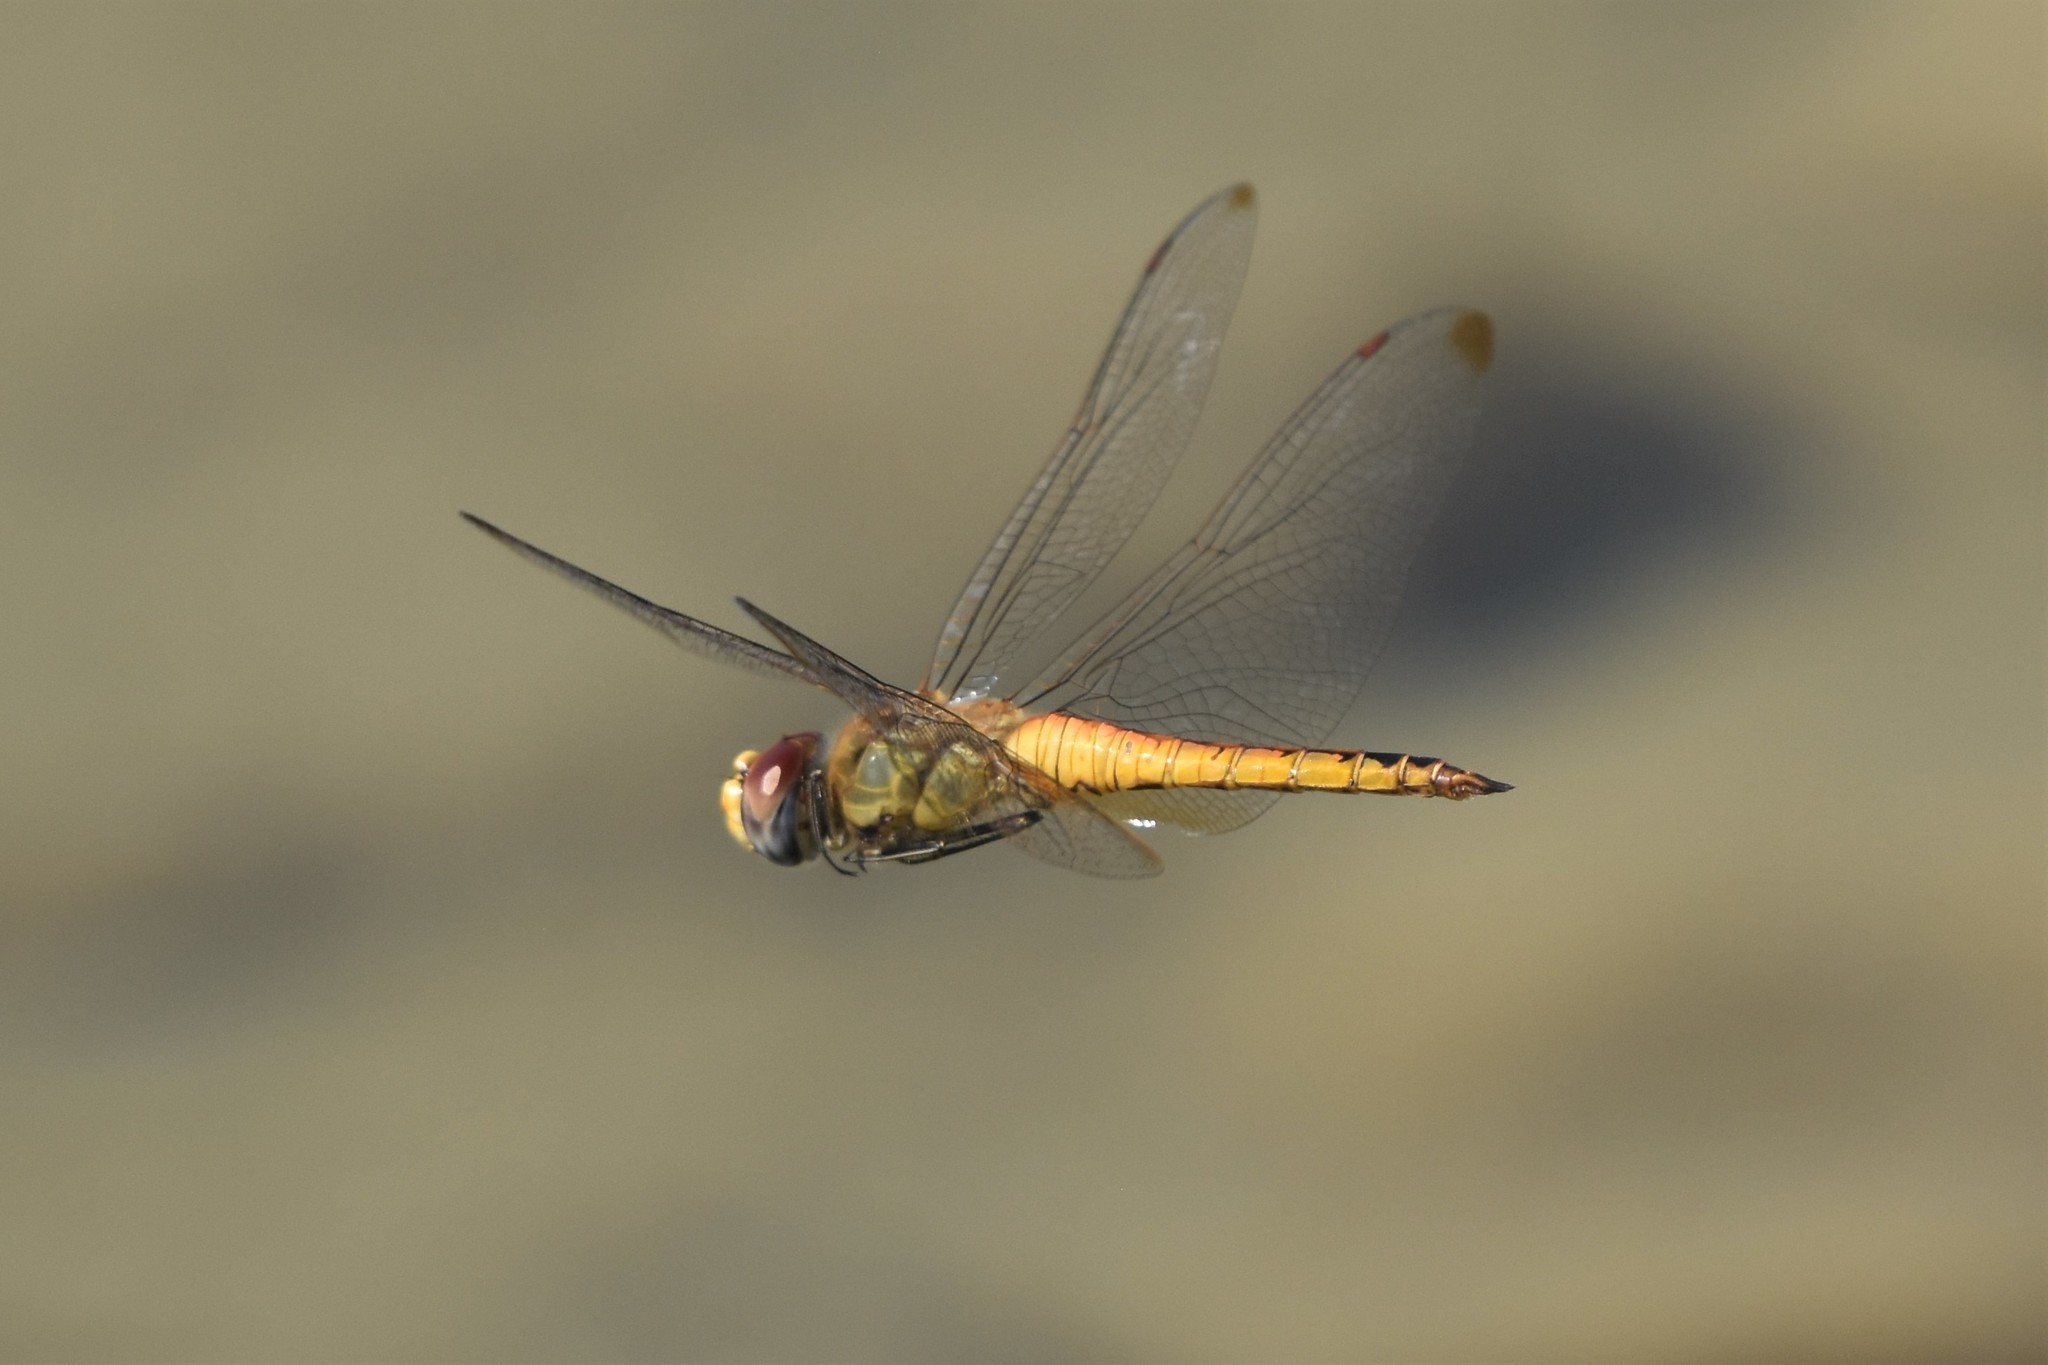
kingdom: Animalia
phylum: Arthropoda
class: Insecta
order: Odonata
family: Libellulidae
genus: Pantala
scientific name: Pantala flavescens
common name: Wandering glider
